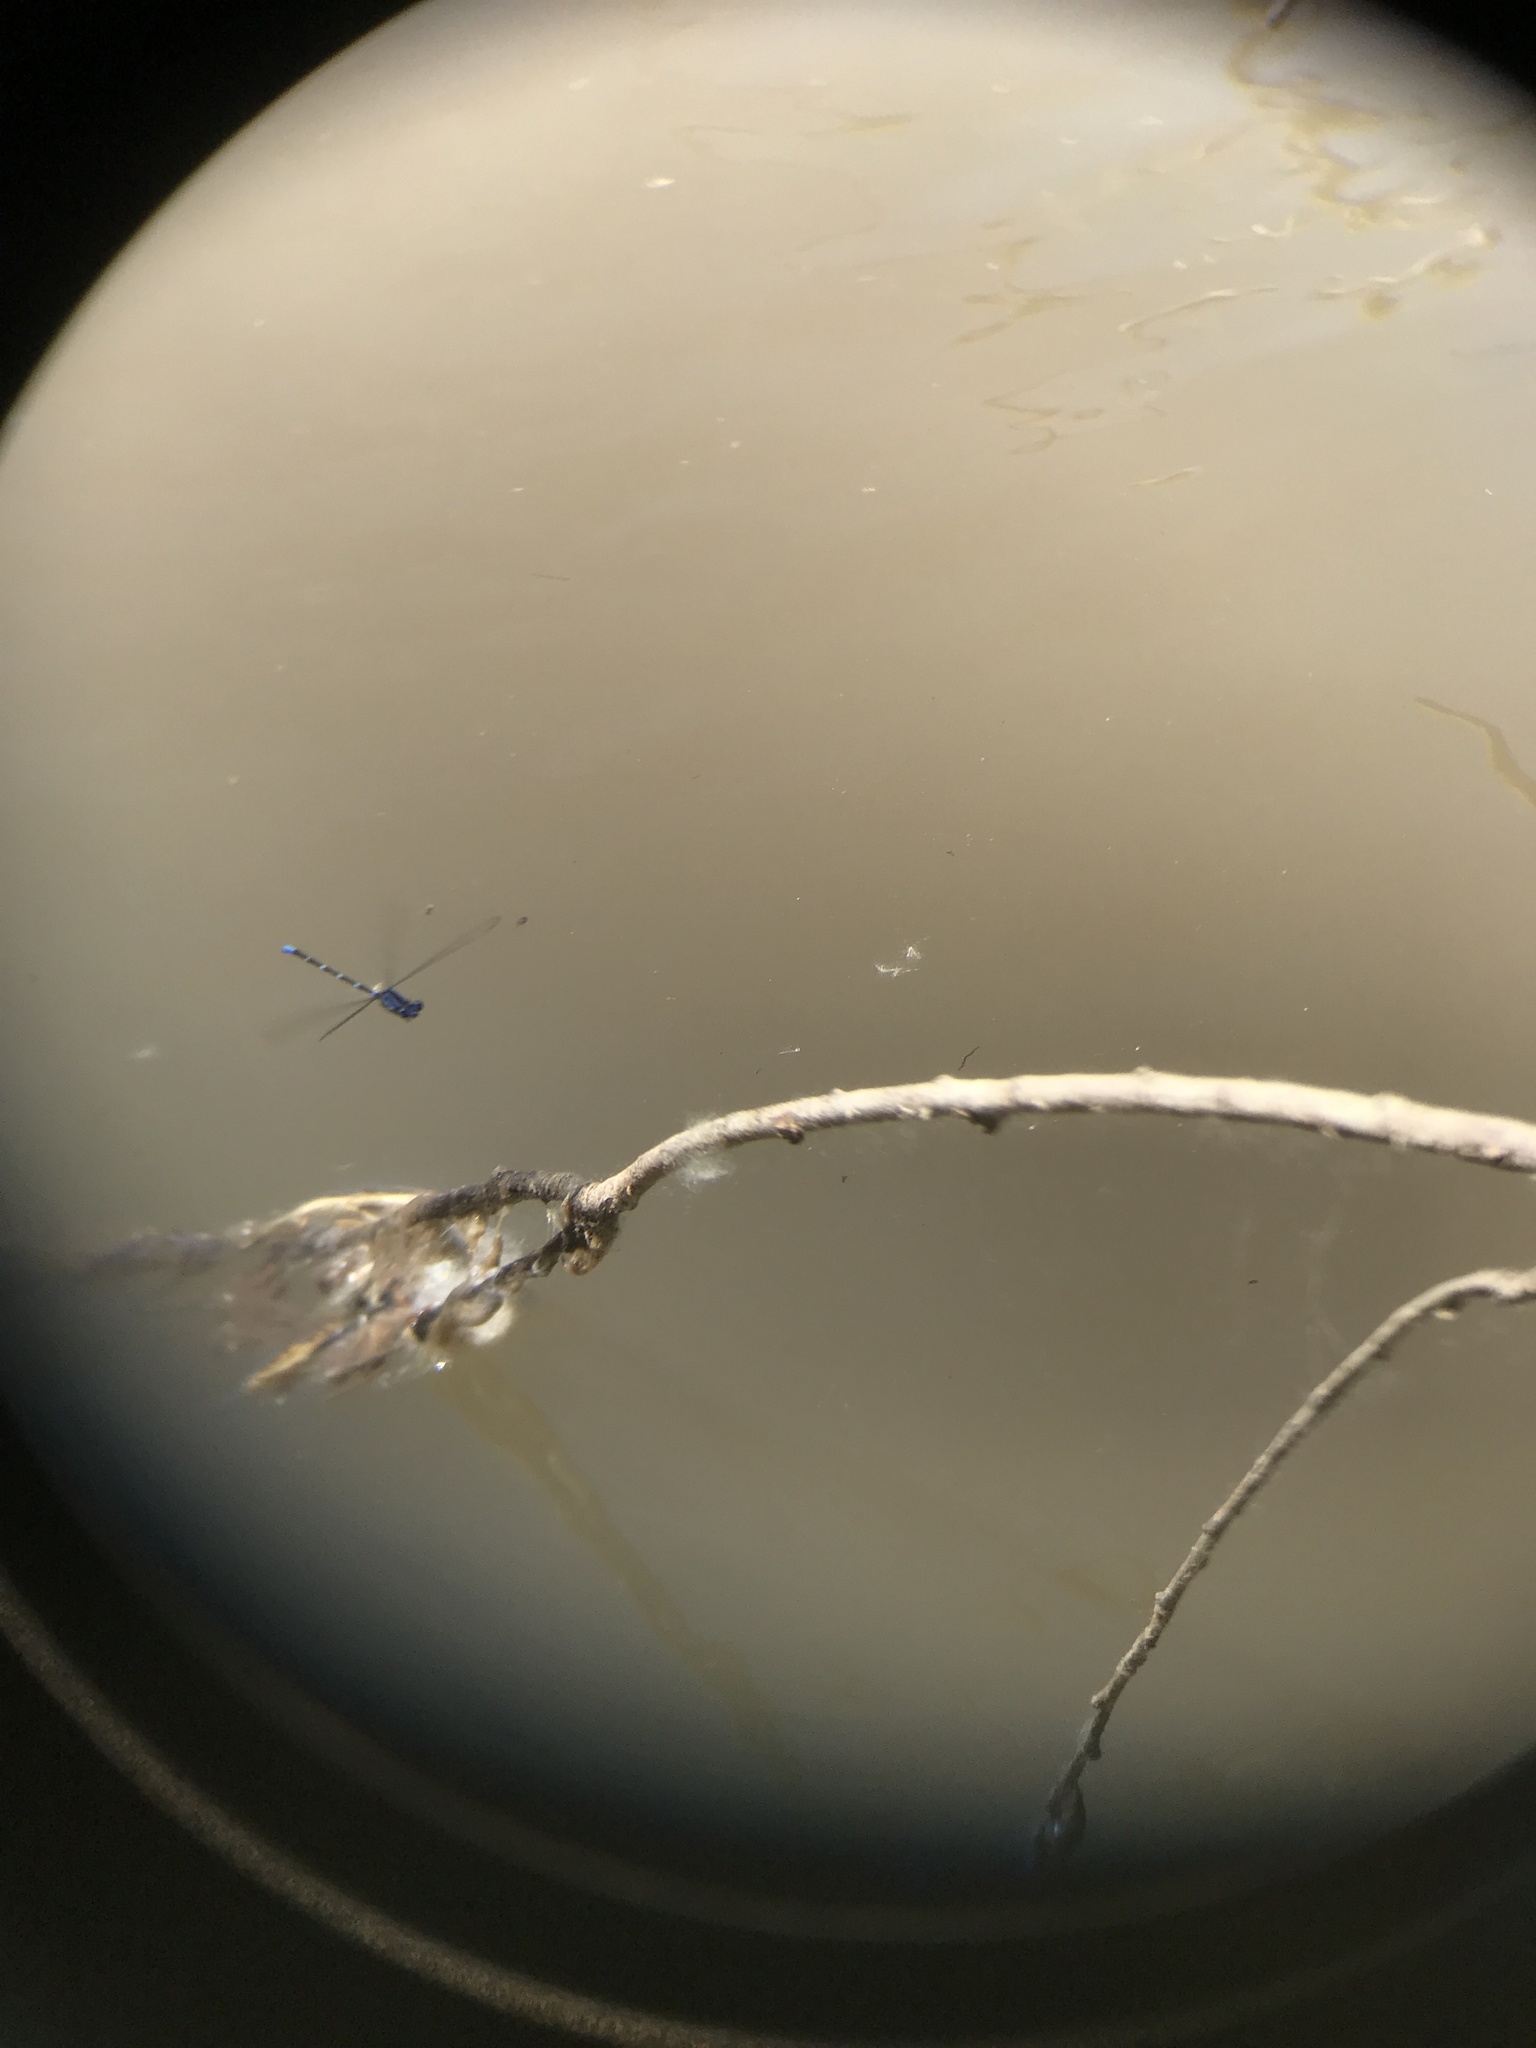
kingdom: Animalia
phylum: Arthropoda
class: Insecta
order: Odonata
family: Coenagrionidae
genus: Argia
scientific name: Argia sedula
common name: Blue-ringed dancer
